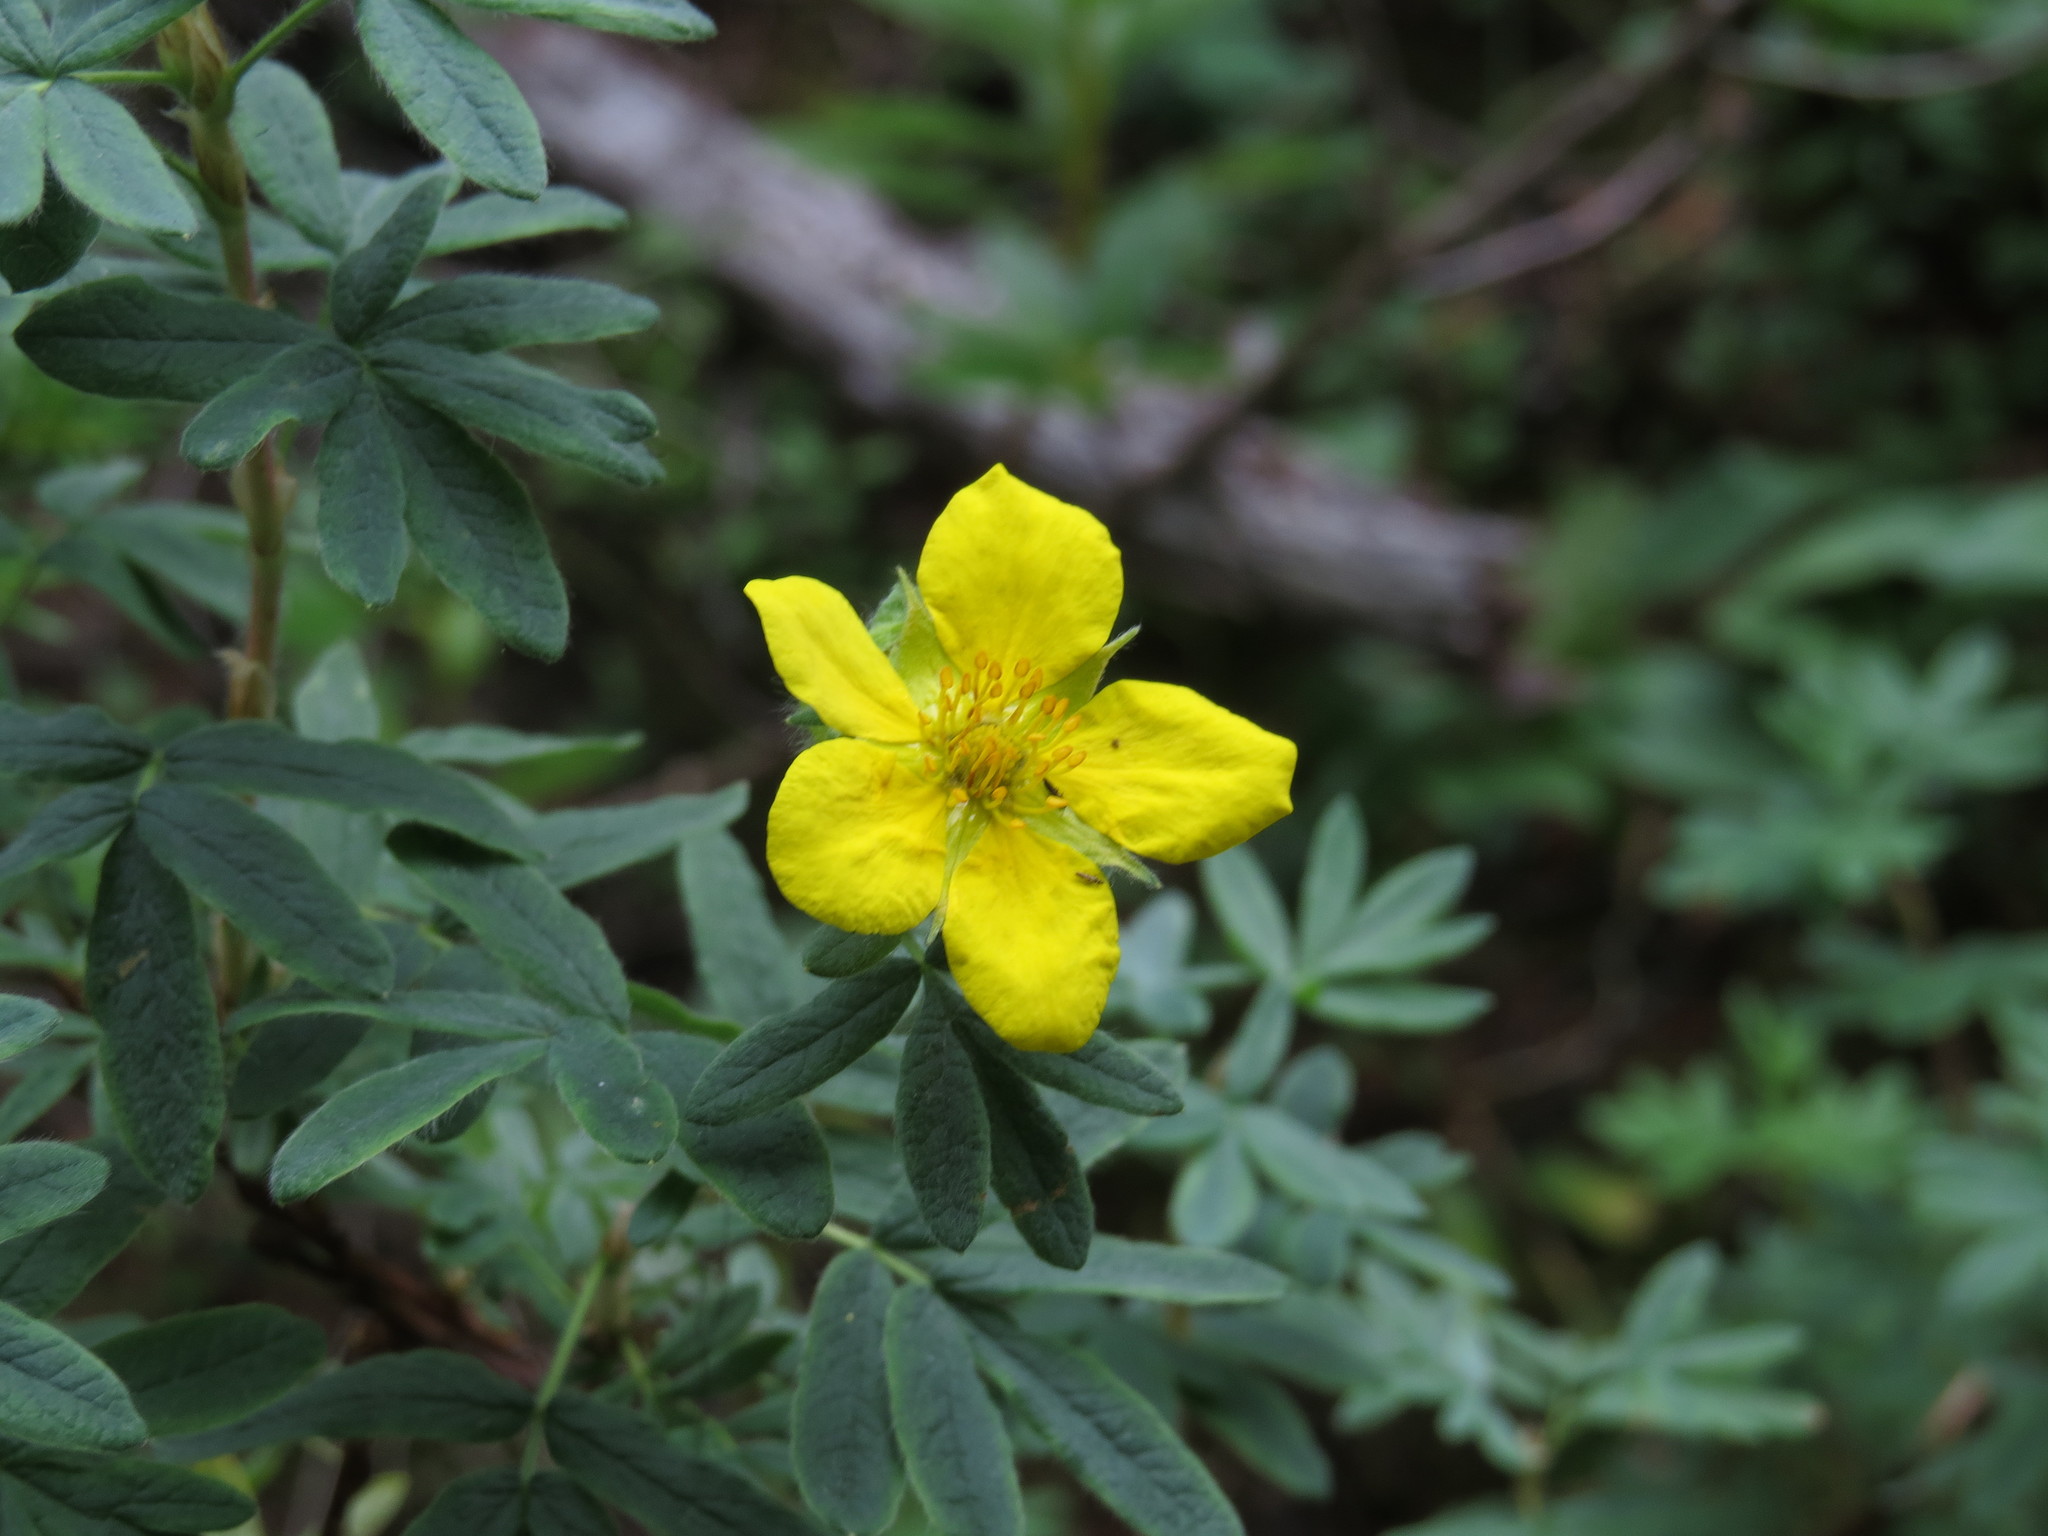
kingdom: Plantae
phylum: Tracheophyta
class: Magnoliopsida
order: Rosales
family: Rosaceae
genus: Dasiphora
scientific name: Dasiphora fruticosa
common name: Shrubby cinquefoil
